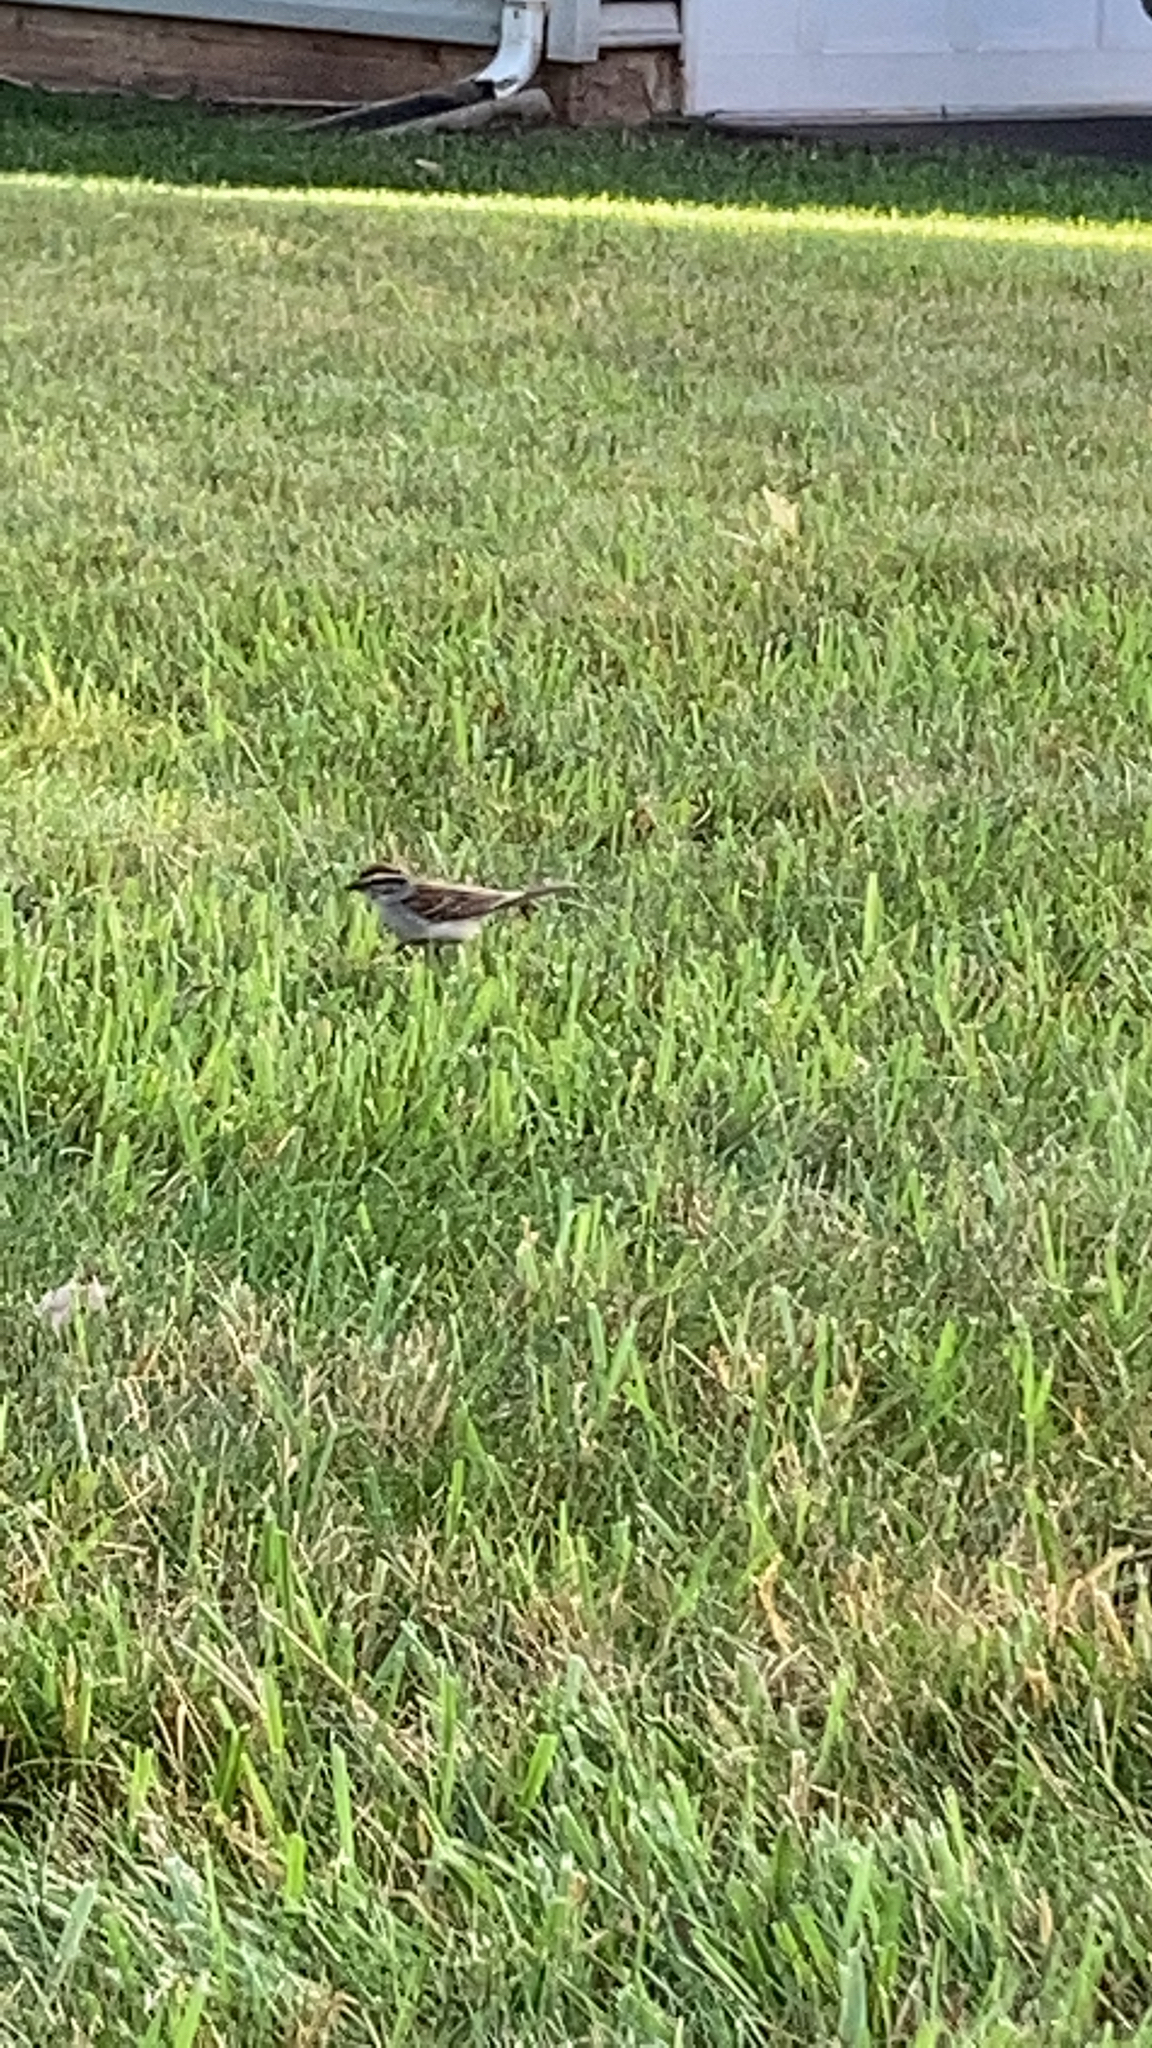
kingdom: Animalia
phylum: Chordata
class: Aves
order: Passeriformes
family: Passerellidae
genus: Spizella
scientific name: Spizella passerina
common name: Chipping sparrow
